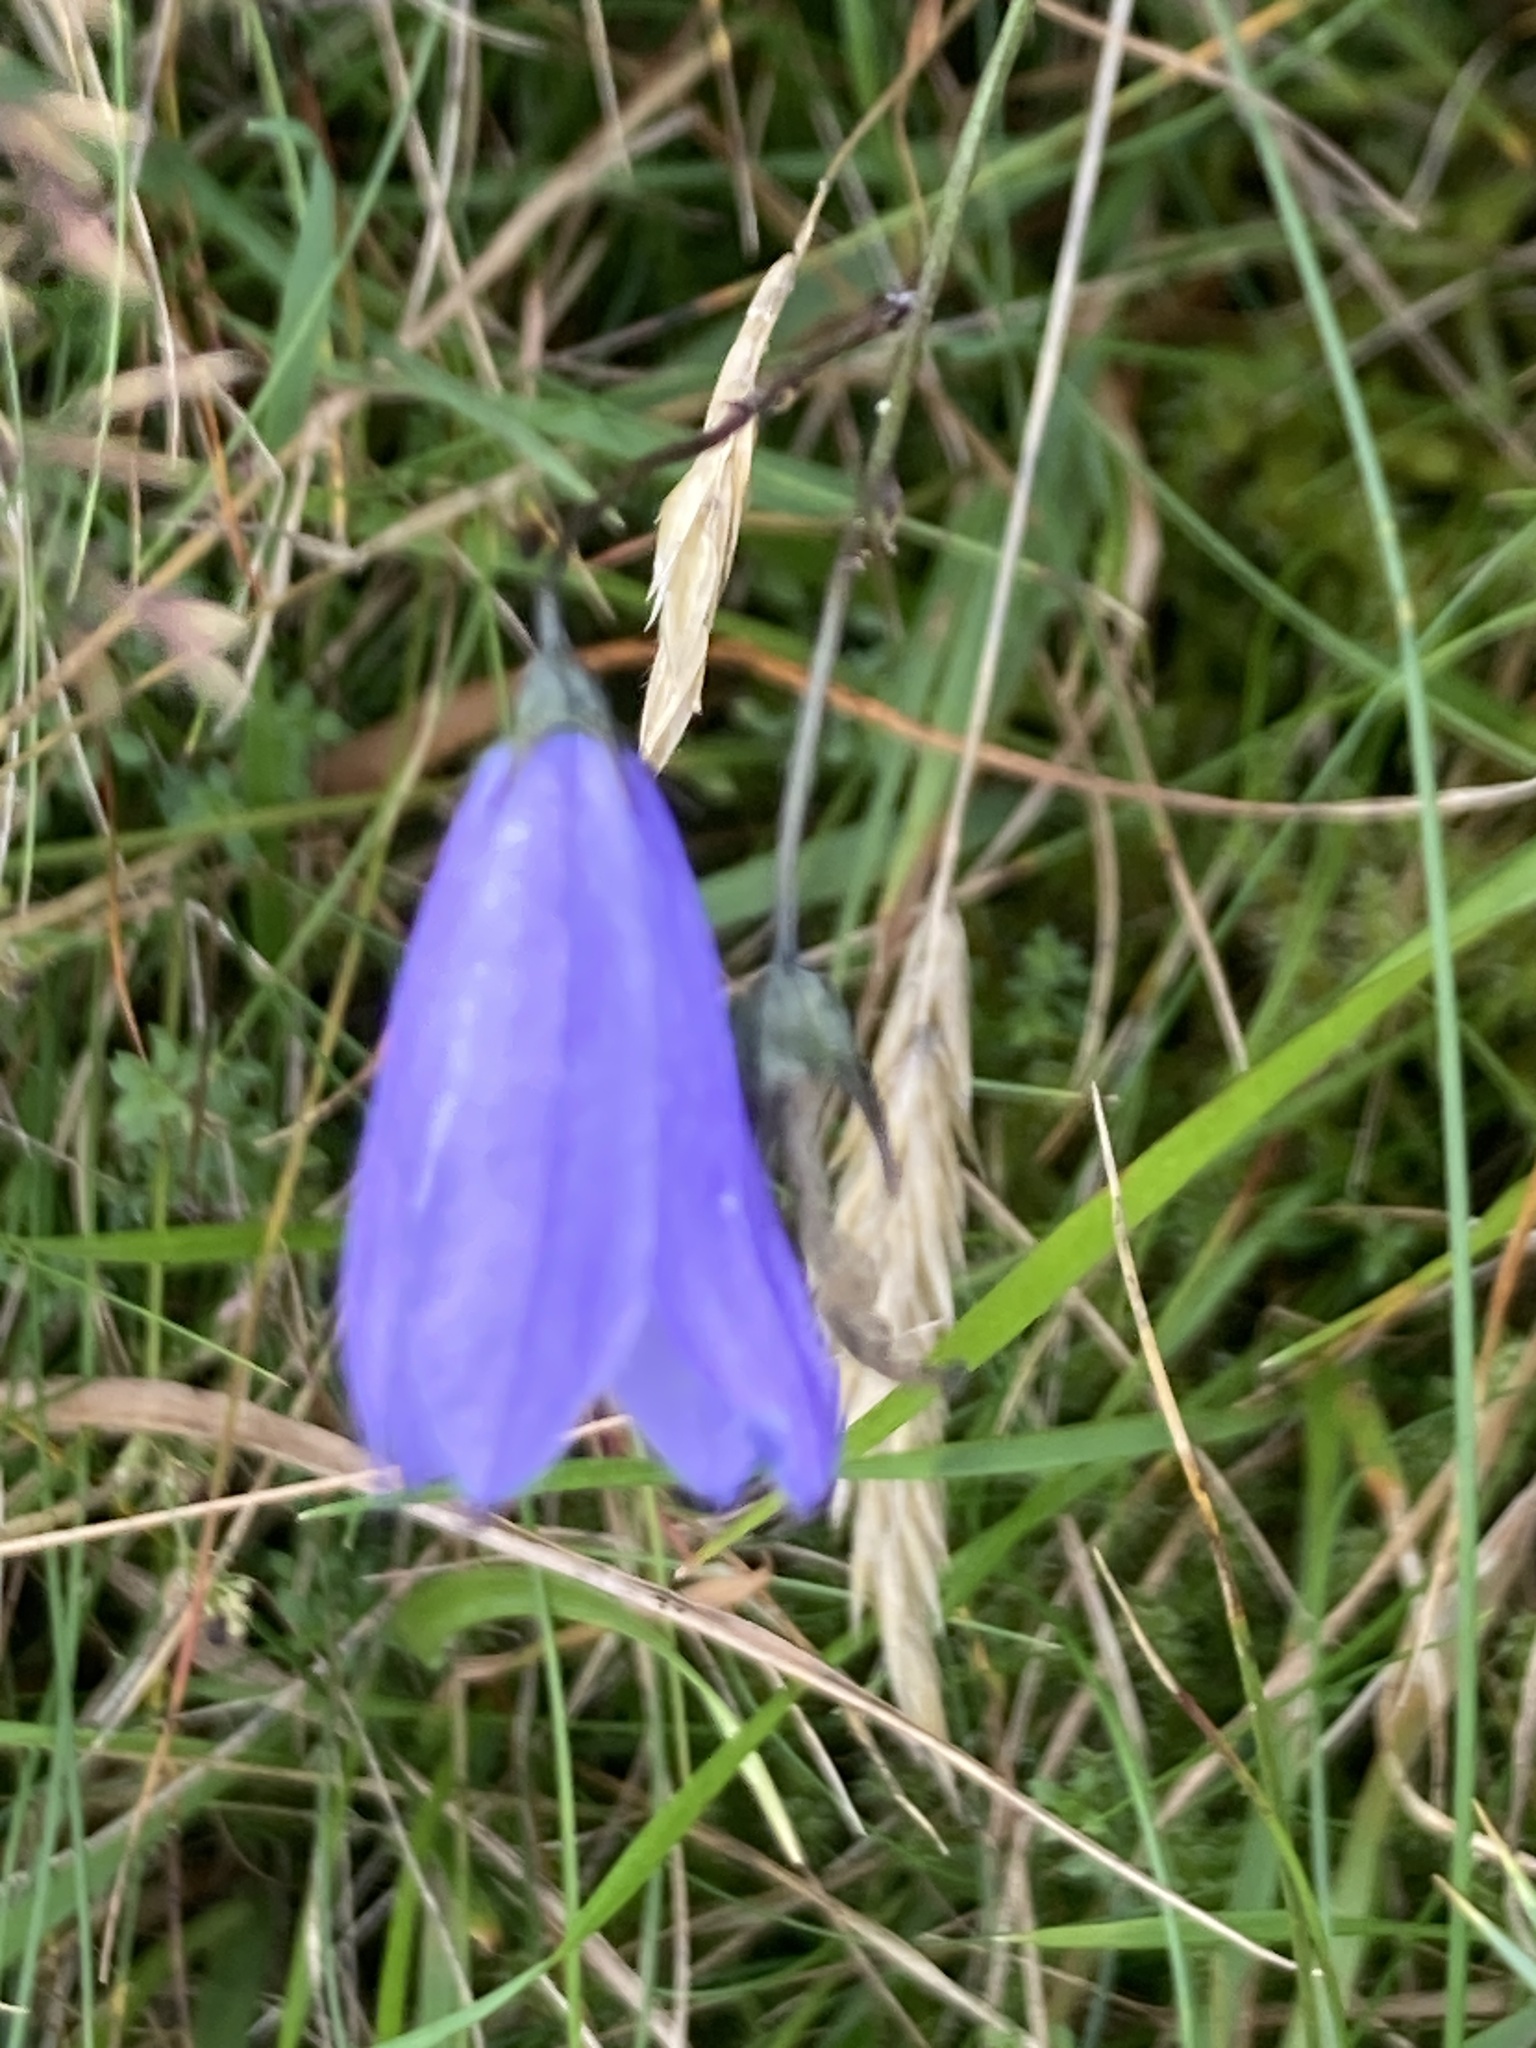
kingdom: Plantae
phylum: Tracheophyta
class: Magnoliopsida
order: Asterales
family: Campanulaceae
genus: Campanula
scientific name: Campanula rotundifolia
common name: Harebell
